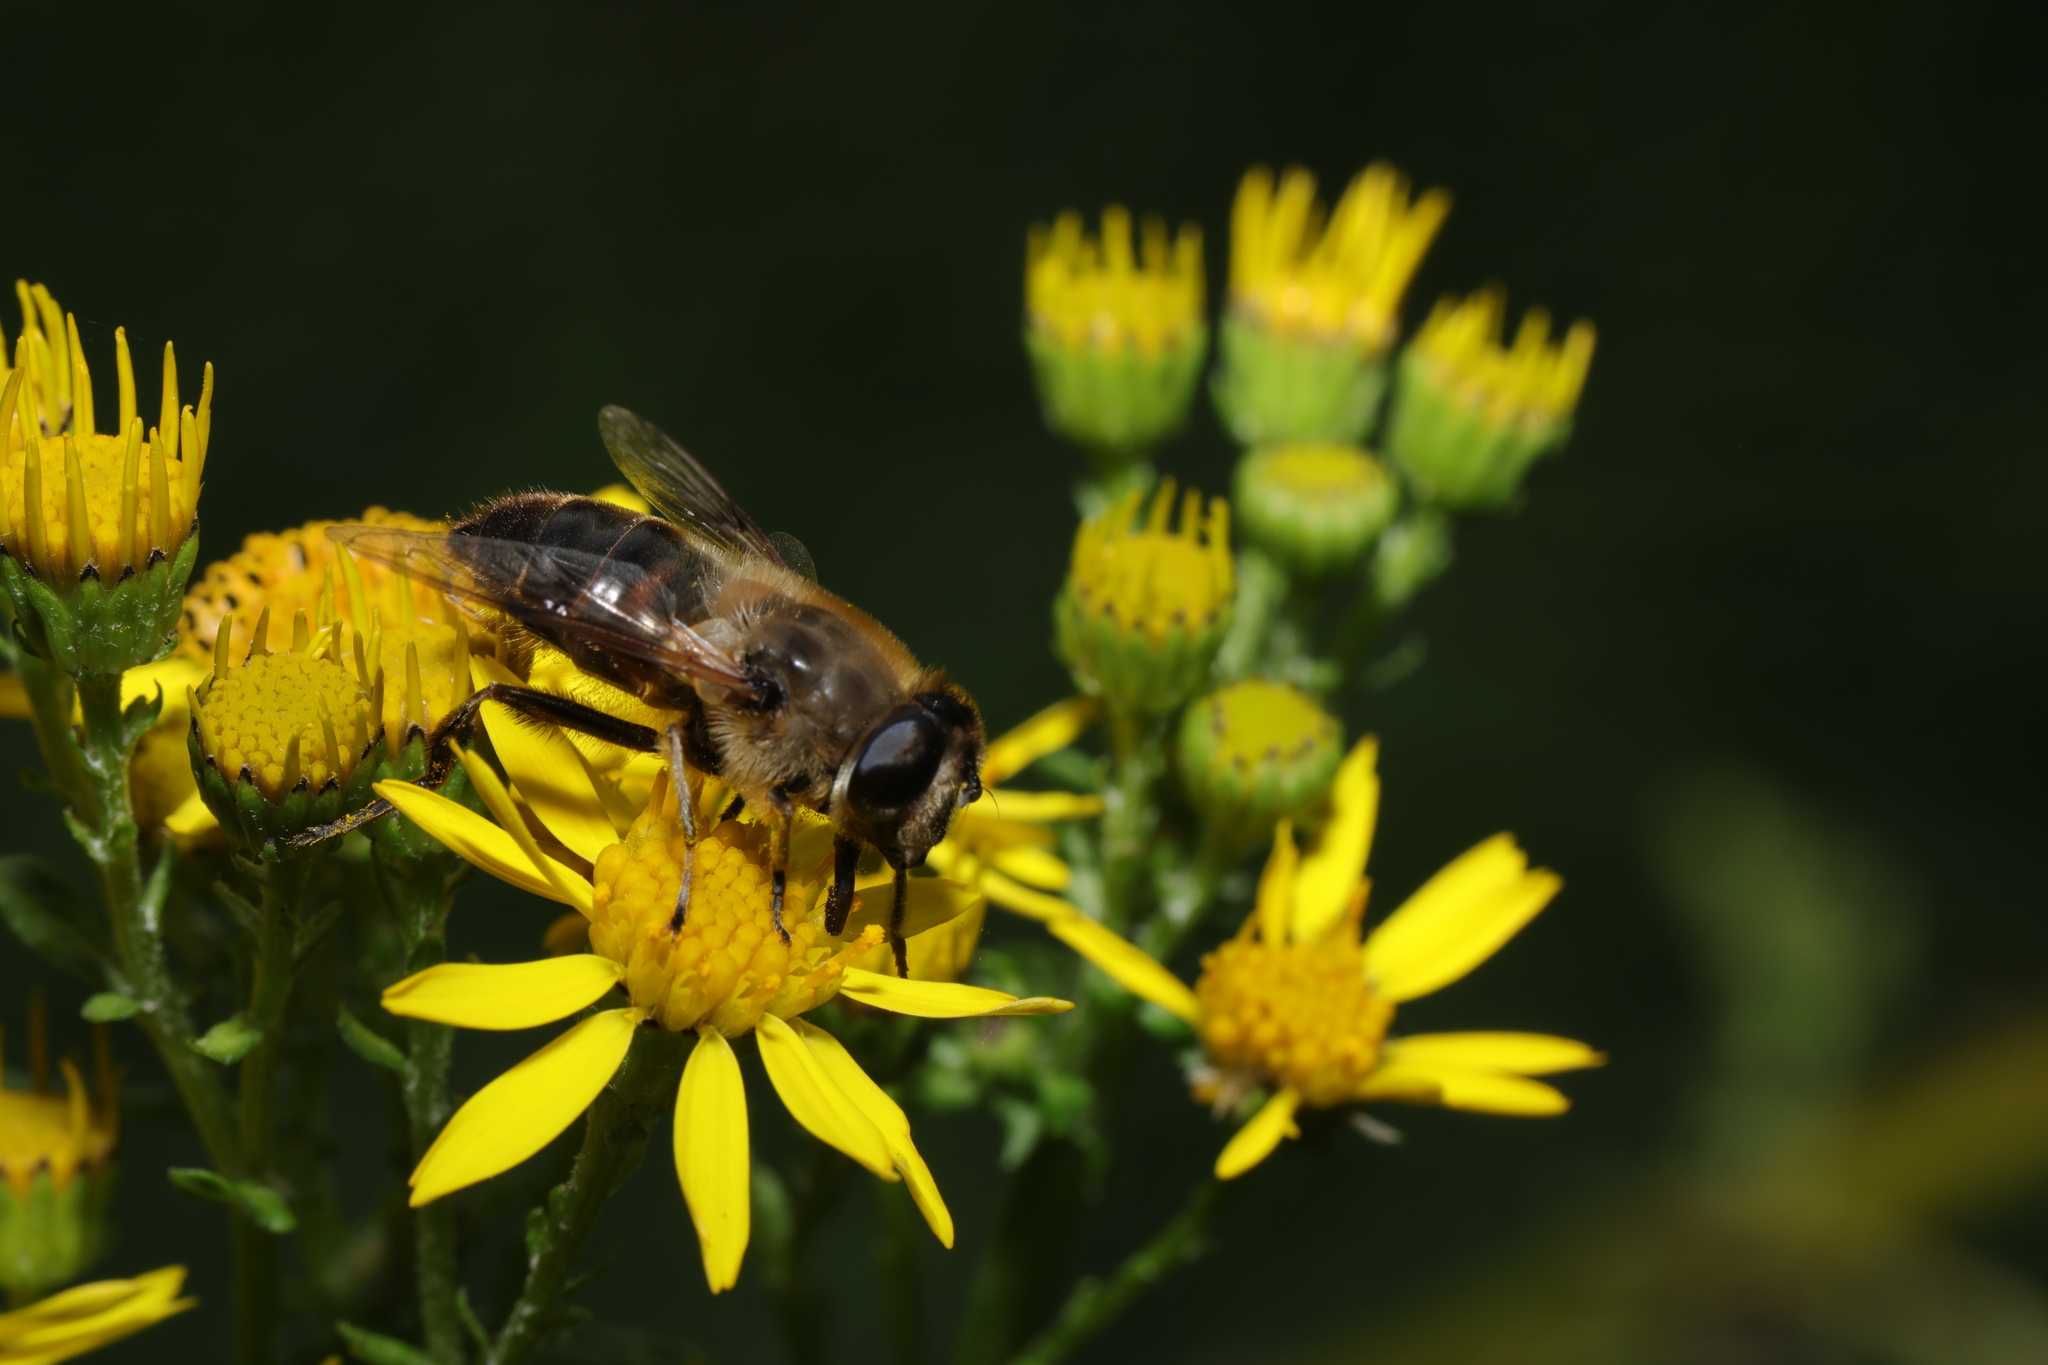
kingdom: Animalia
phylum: Arthropoda
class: Insecta
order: Diptera
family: Syrphidae
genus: Eristalis
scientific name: Eristalis tenax
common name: Drone fly
